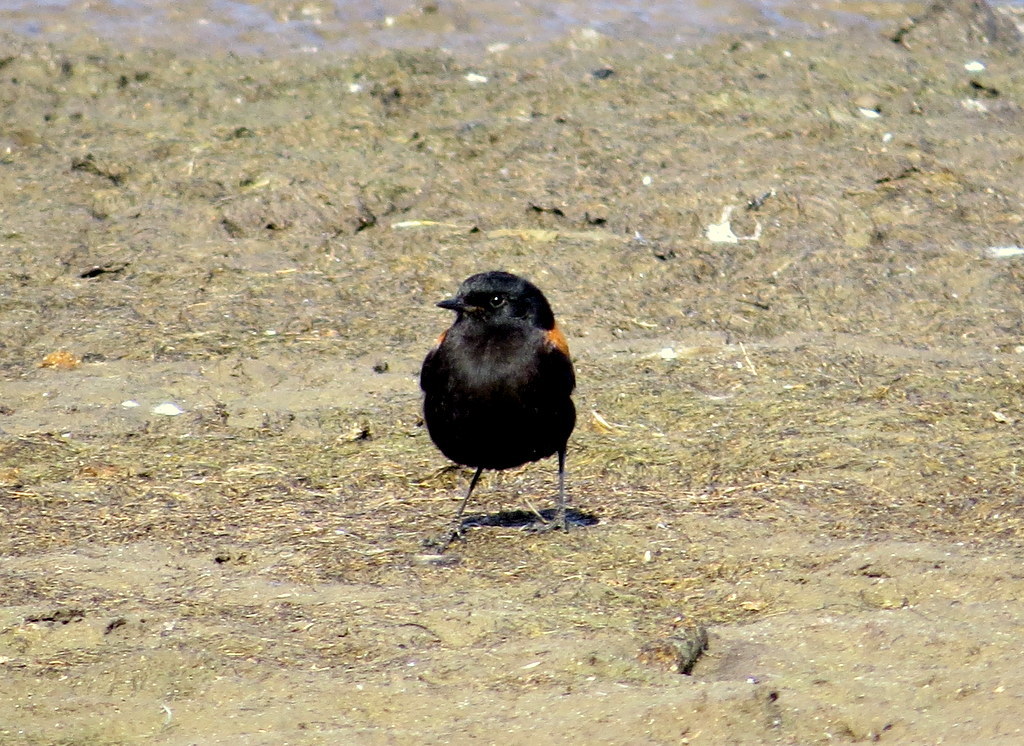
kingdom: Animalia
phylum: Chordata
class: Aves
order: Passeriformes
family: Tyrannidae
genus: Lessonia
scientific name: Lessonia rufa
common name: Austral negrito
